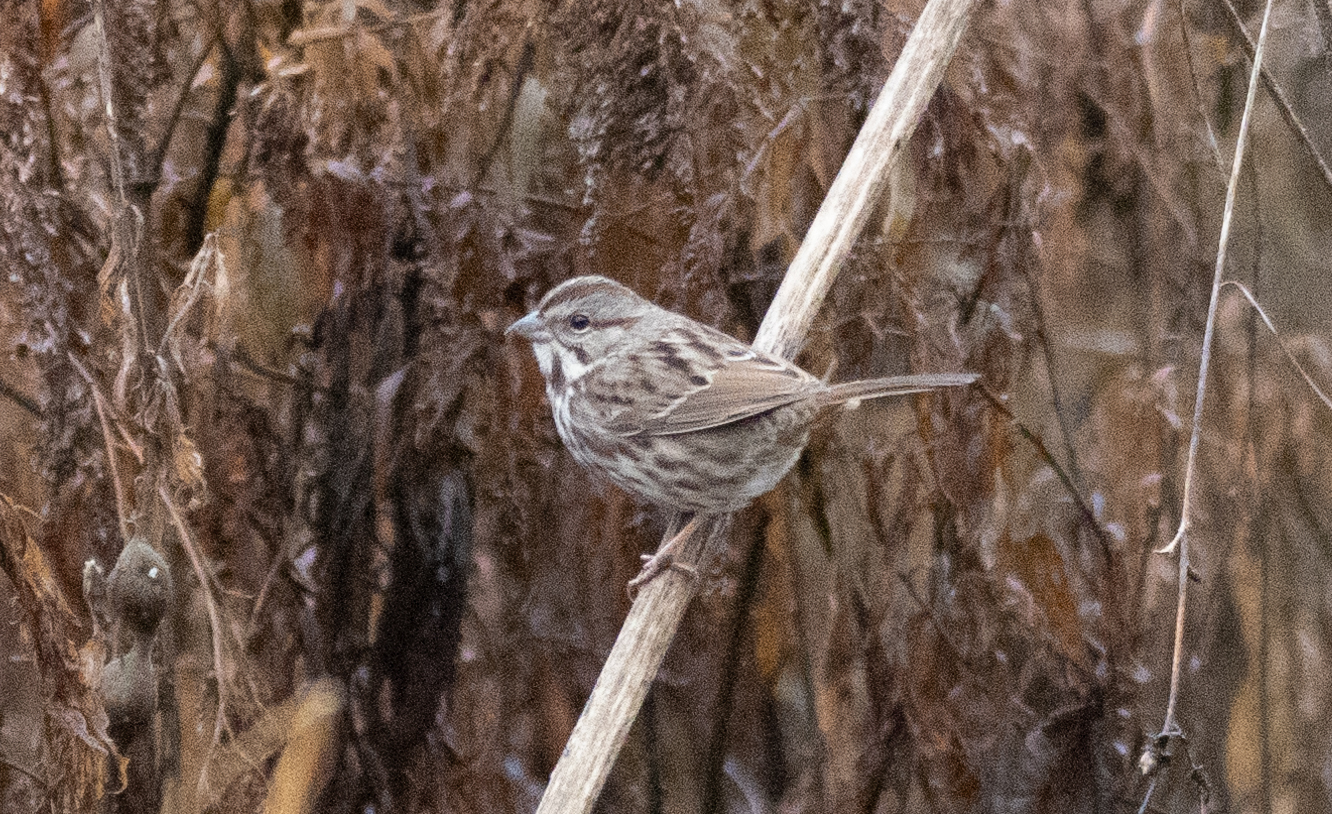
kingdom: Animalia
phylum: Chordata
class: Aves
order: Passeriformes
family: Passerellidae
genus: Melospiza
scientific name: Melospiza melodia
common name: Song sparrow
